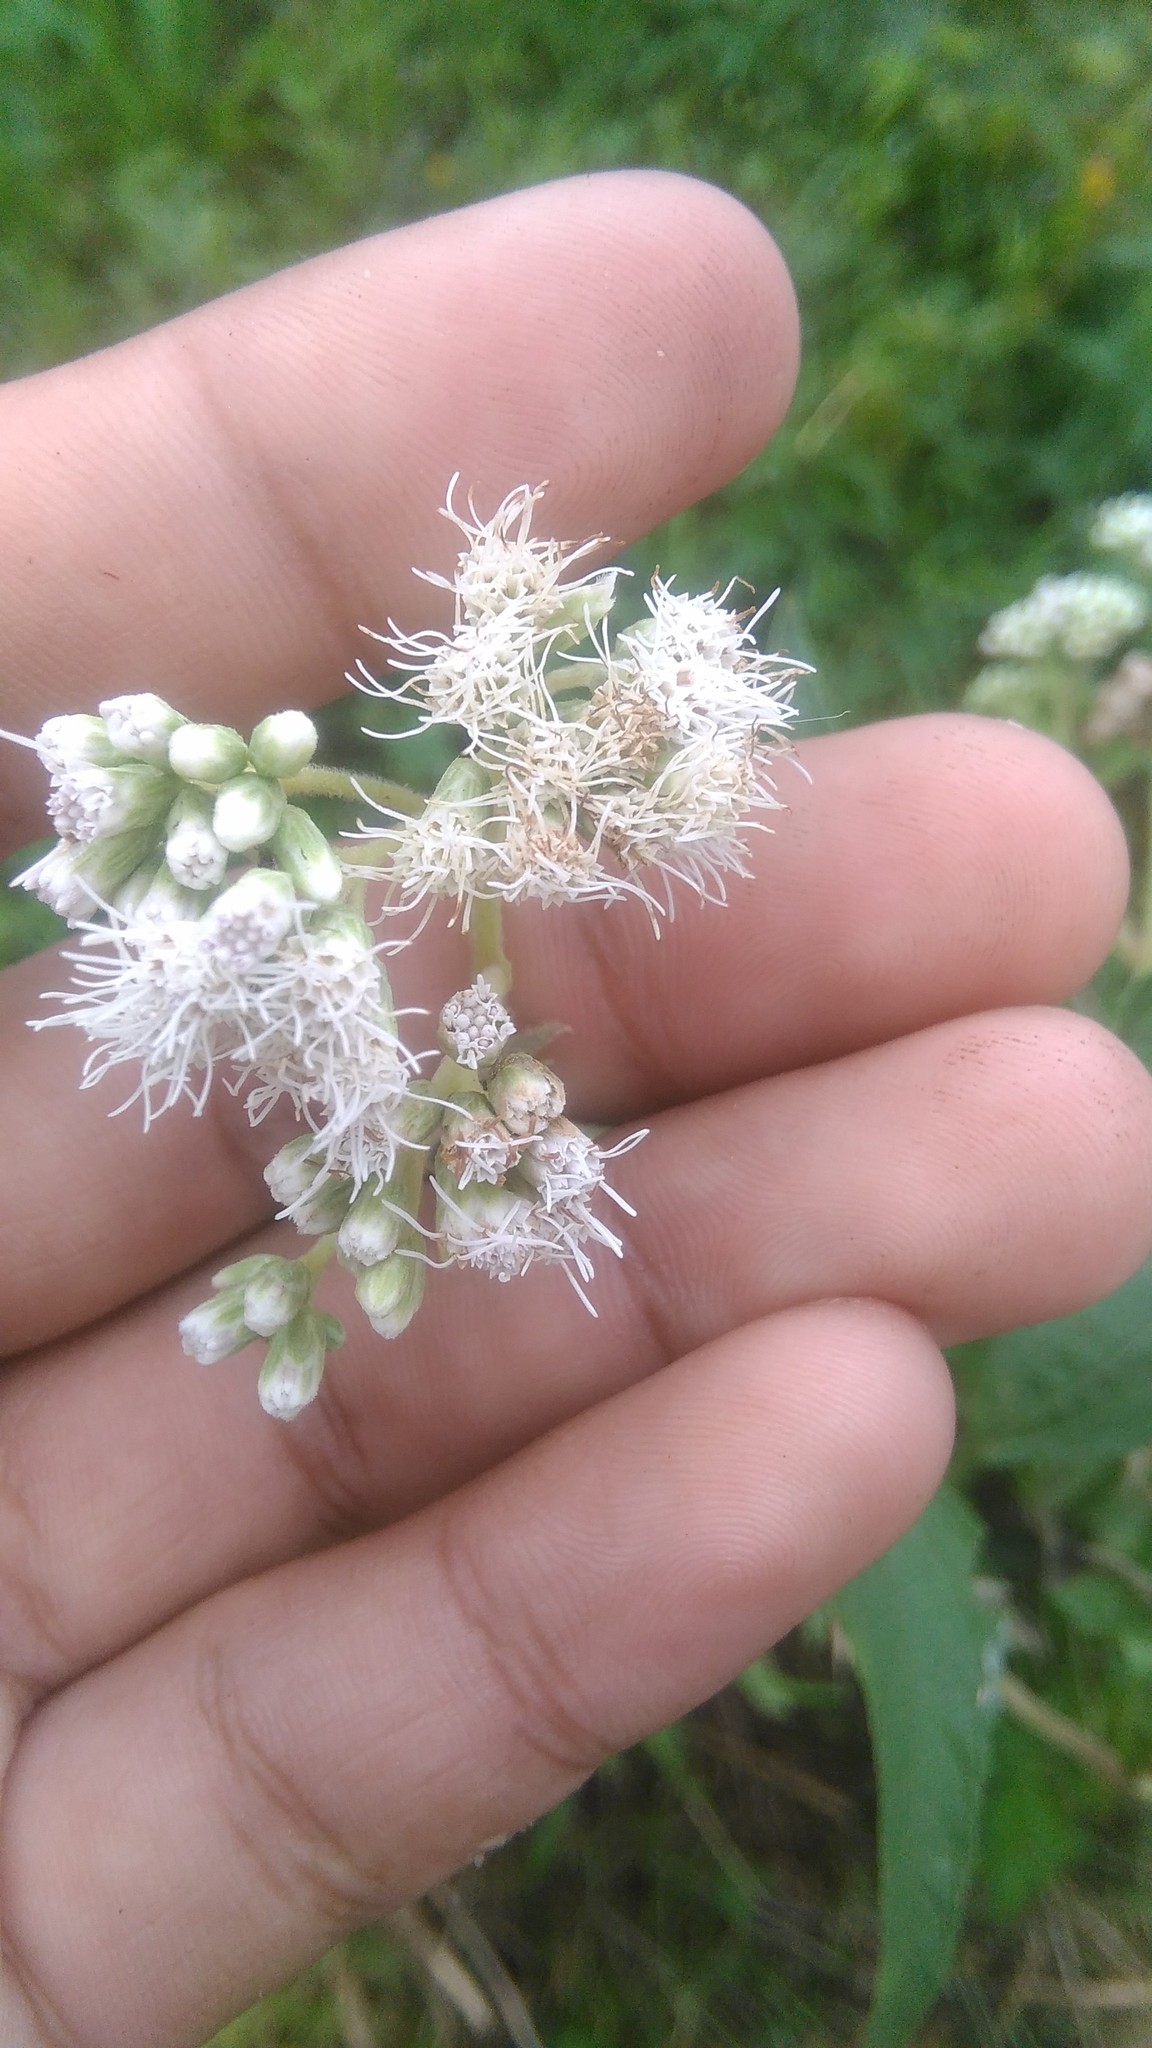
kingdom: Plantae
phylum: Tracheophyta
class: Magnoliopsida
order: Asterales
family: Asteraceae
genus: Austroeupatorium
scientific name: Austroeupatorium inulifolium
